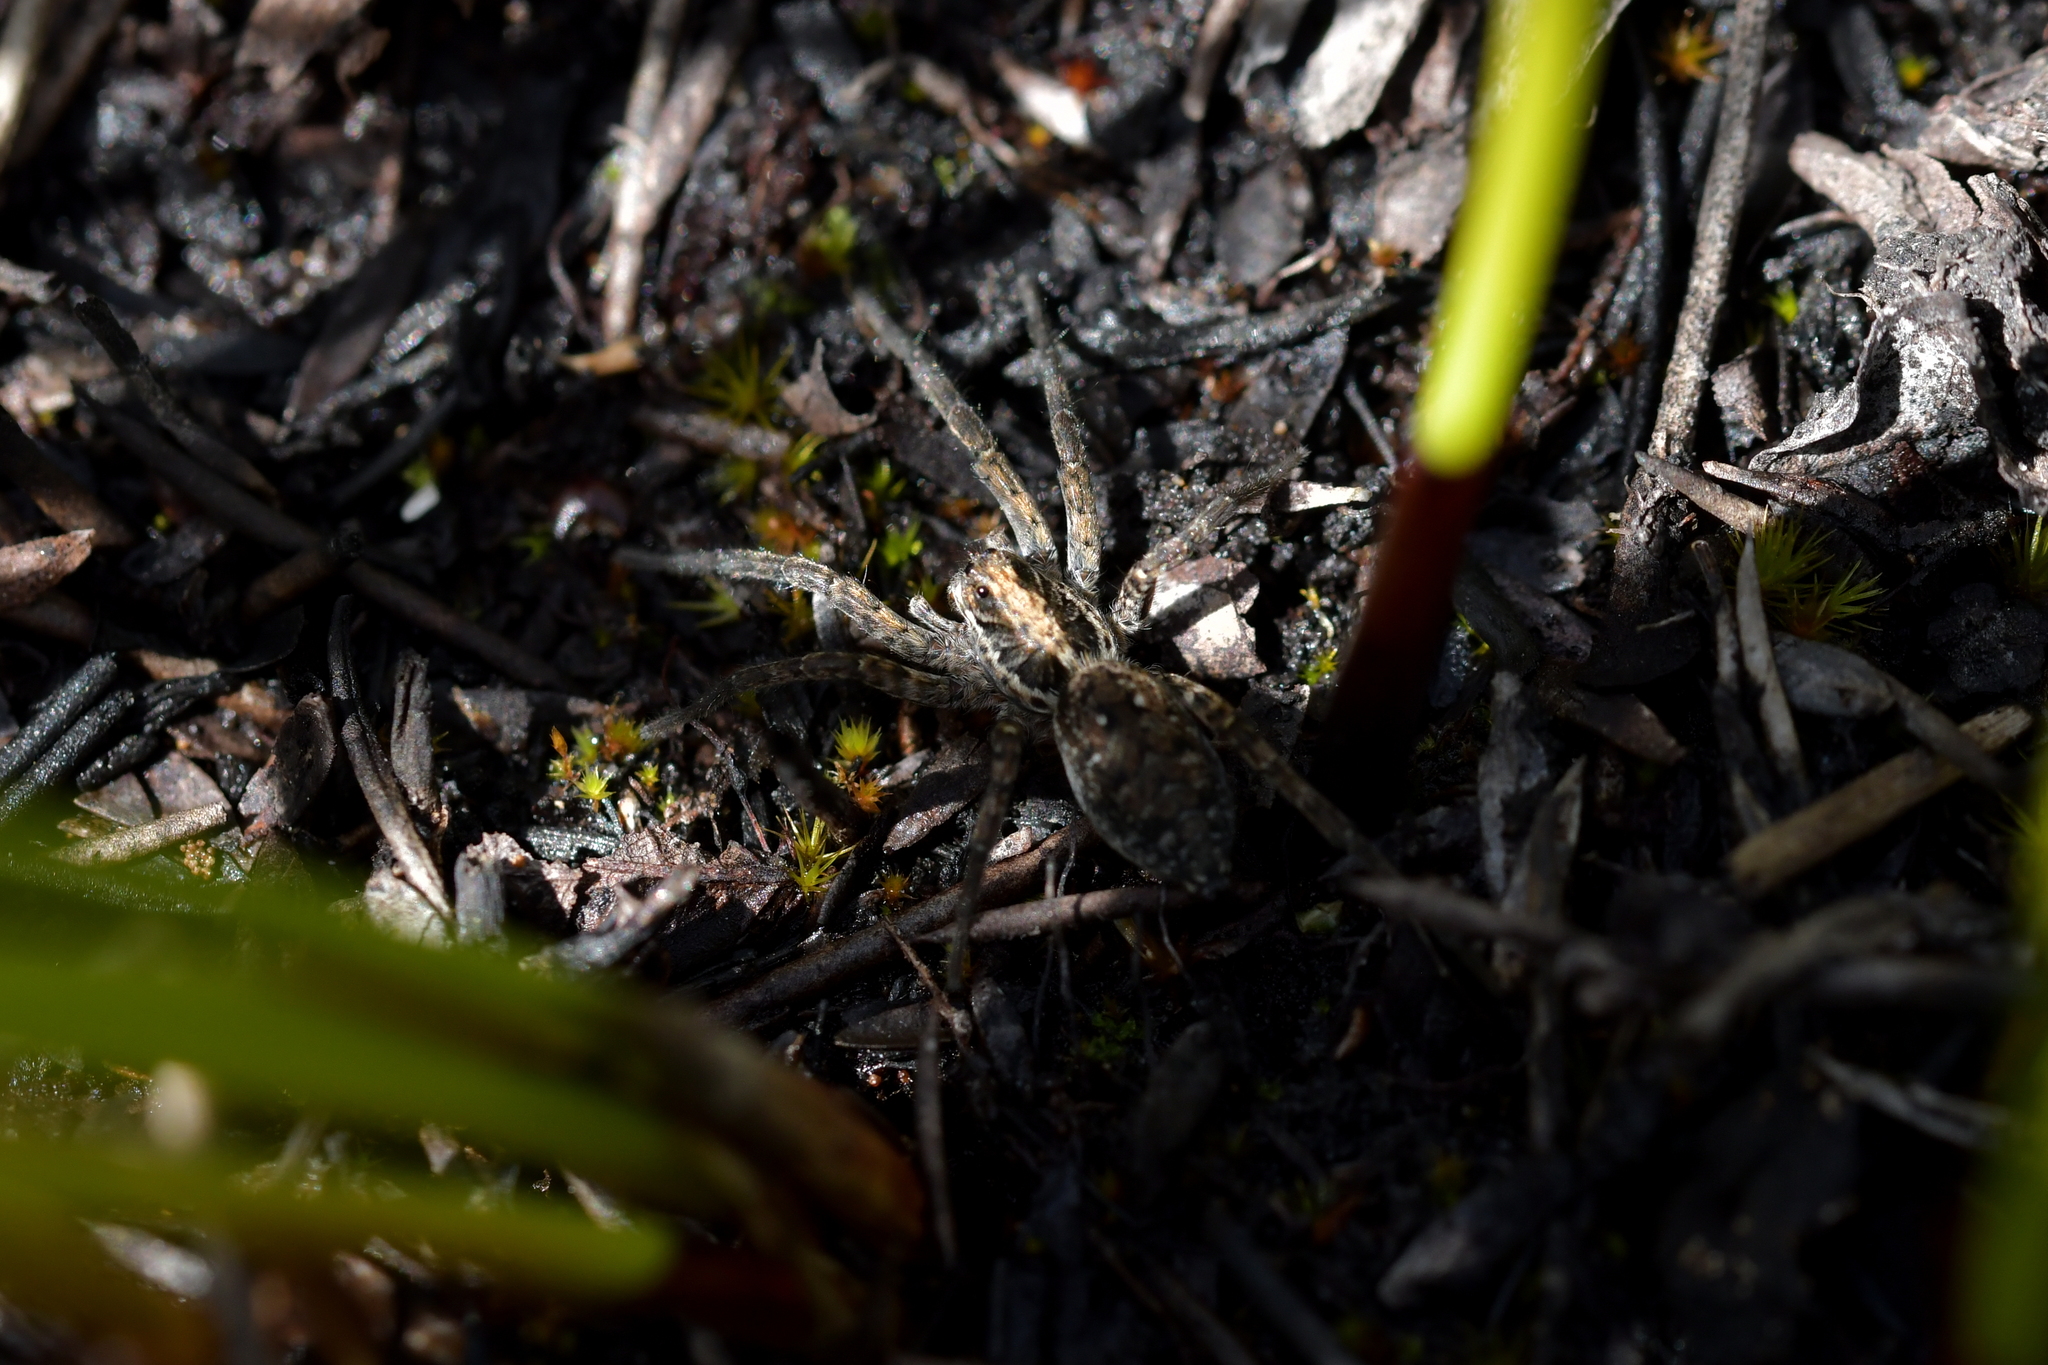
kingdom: Animalia
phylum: Arthropoda
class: Arachnida
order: Araneae
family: Lycosidae
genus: Hogna
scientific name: Hogna crispipes
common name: Wolf spider
